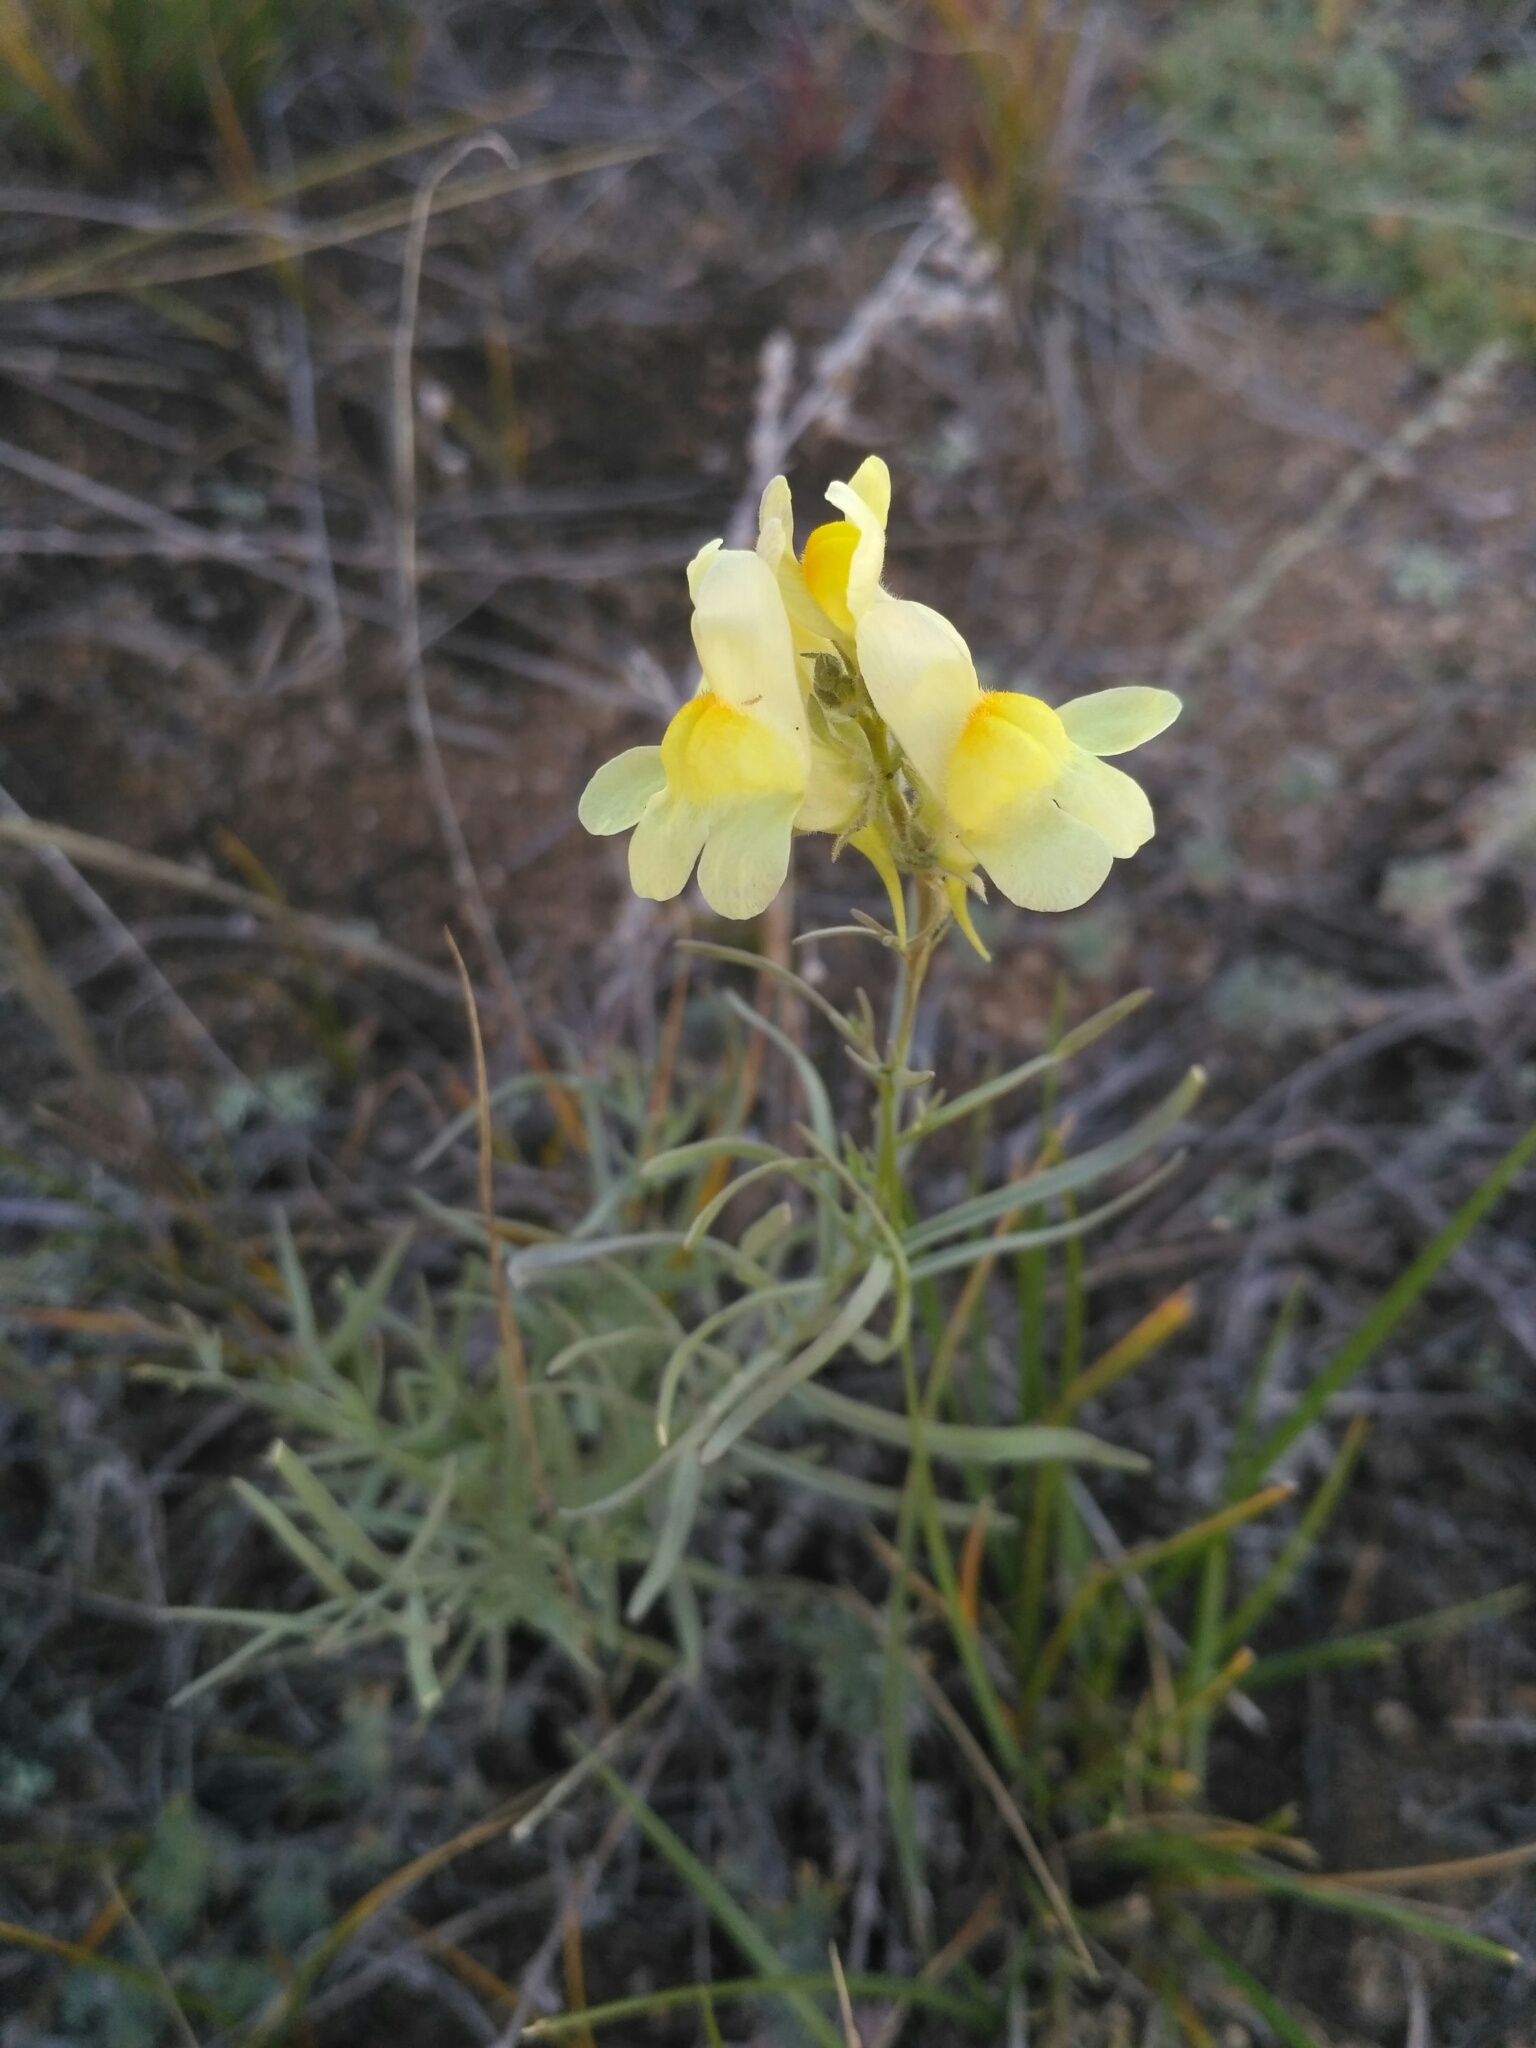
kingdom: Plantae
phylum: Tracheophyta
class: Magnoliopsida
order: Lamiales
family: Plantaginaceae
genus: Linaria
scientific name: Linaria buriatica
